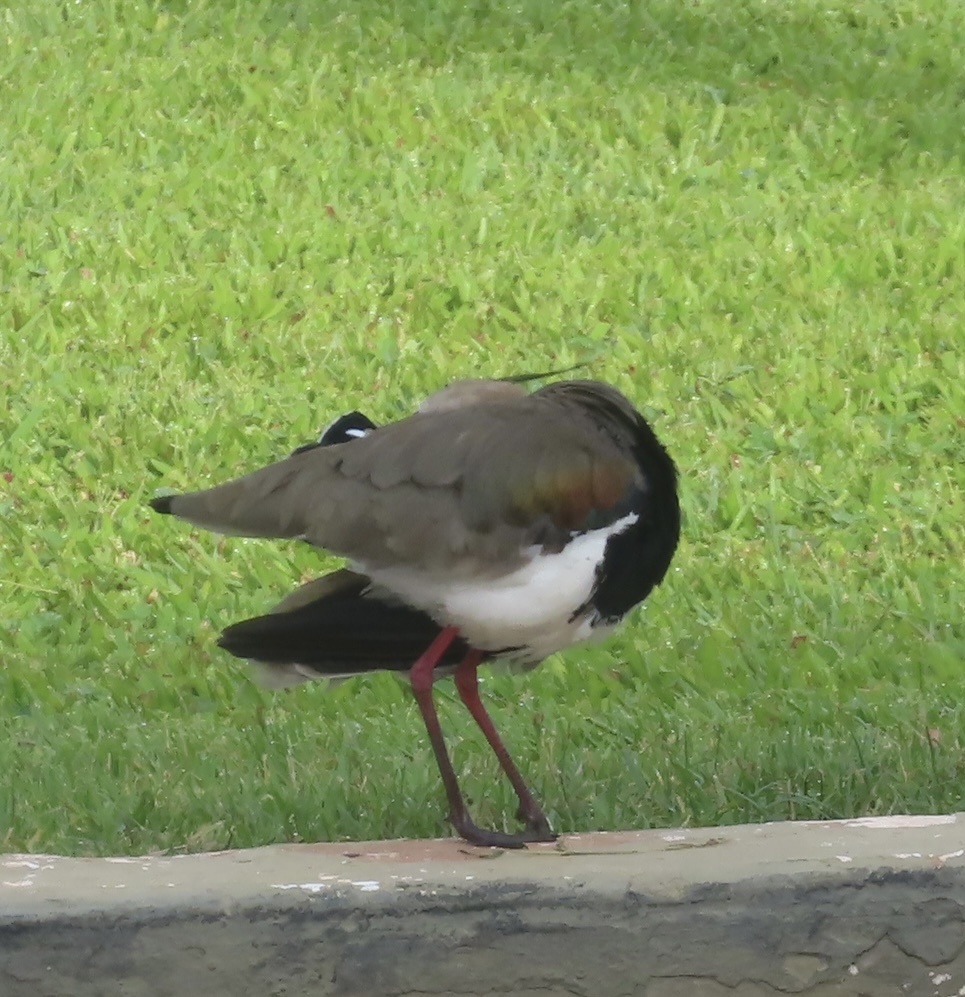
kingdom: Animalia
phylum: Chordata
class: Aves
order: Charadriiformes
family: Charadriidae
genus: Vanellus
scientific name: Vanellus chilensis
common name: Southern lapwing
